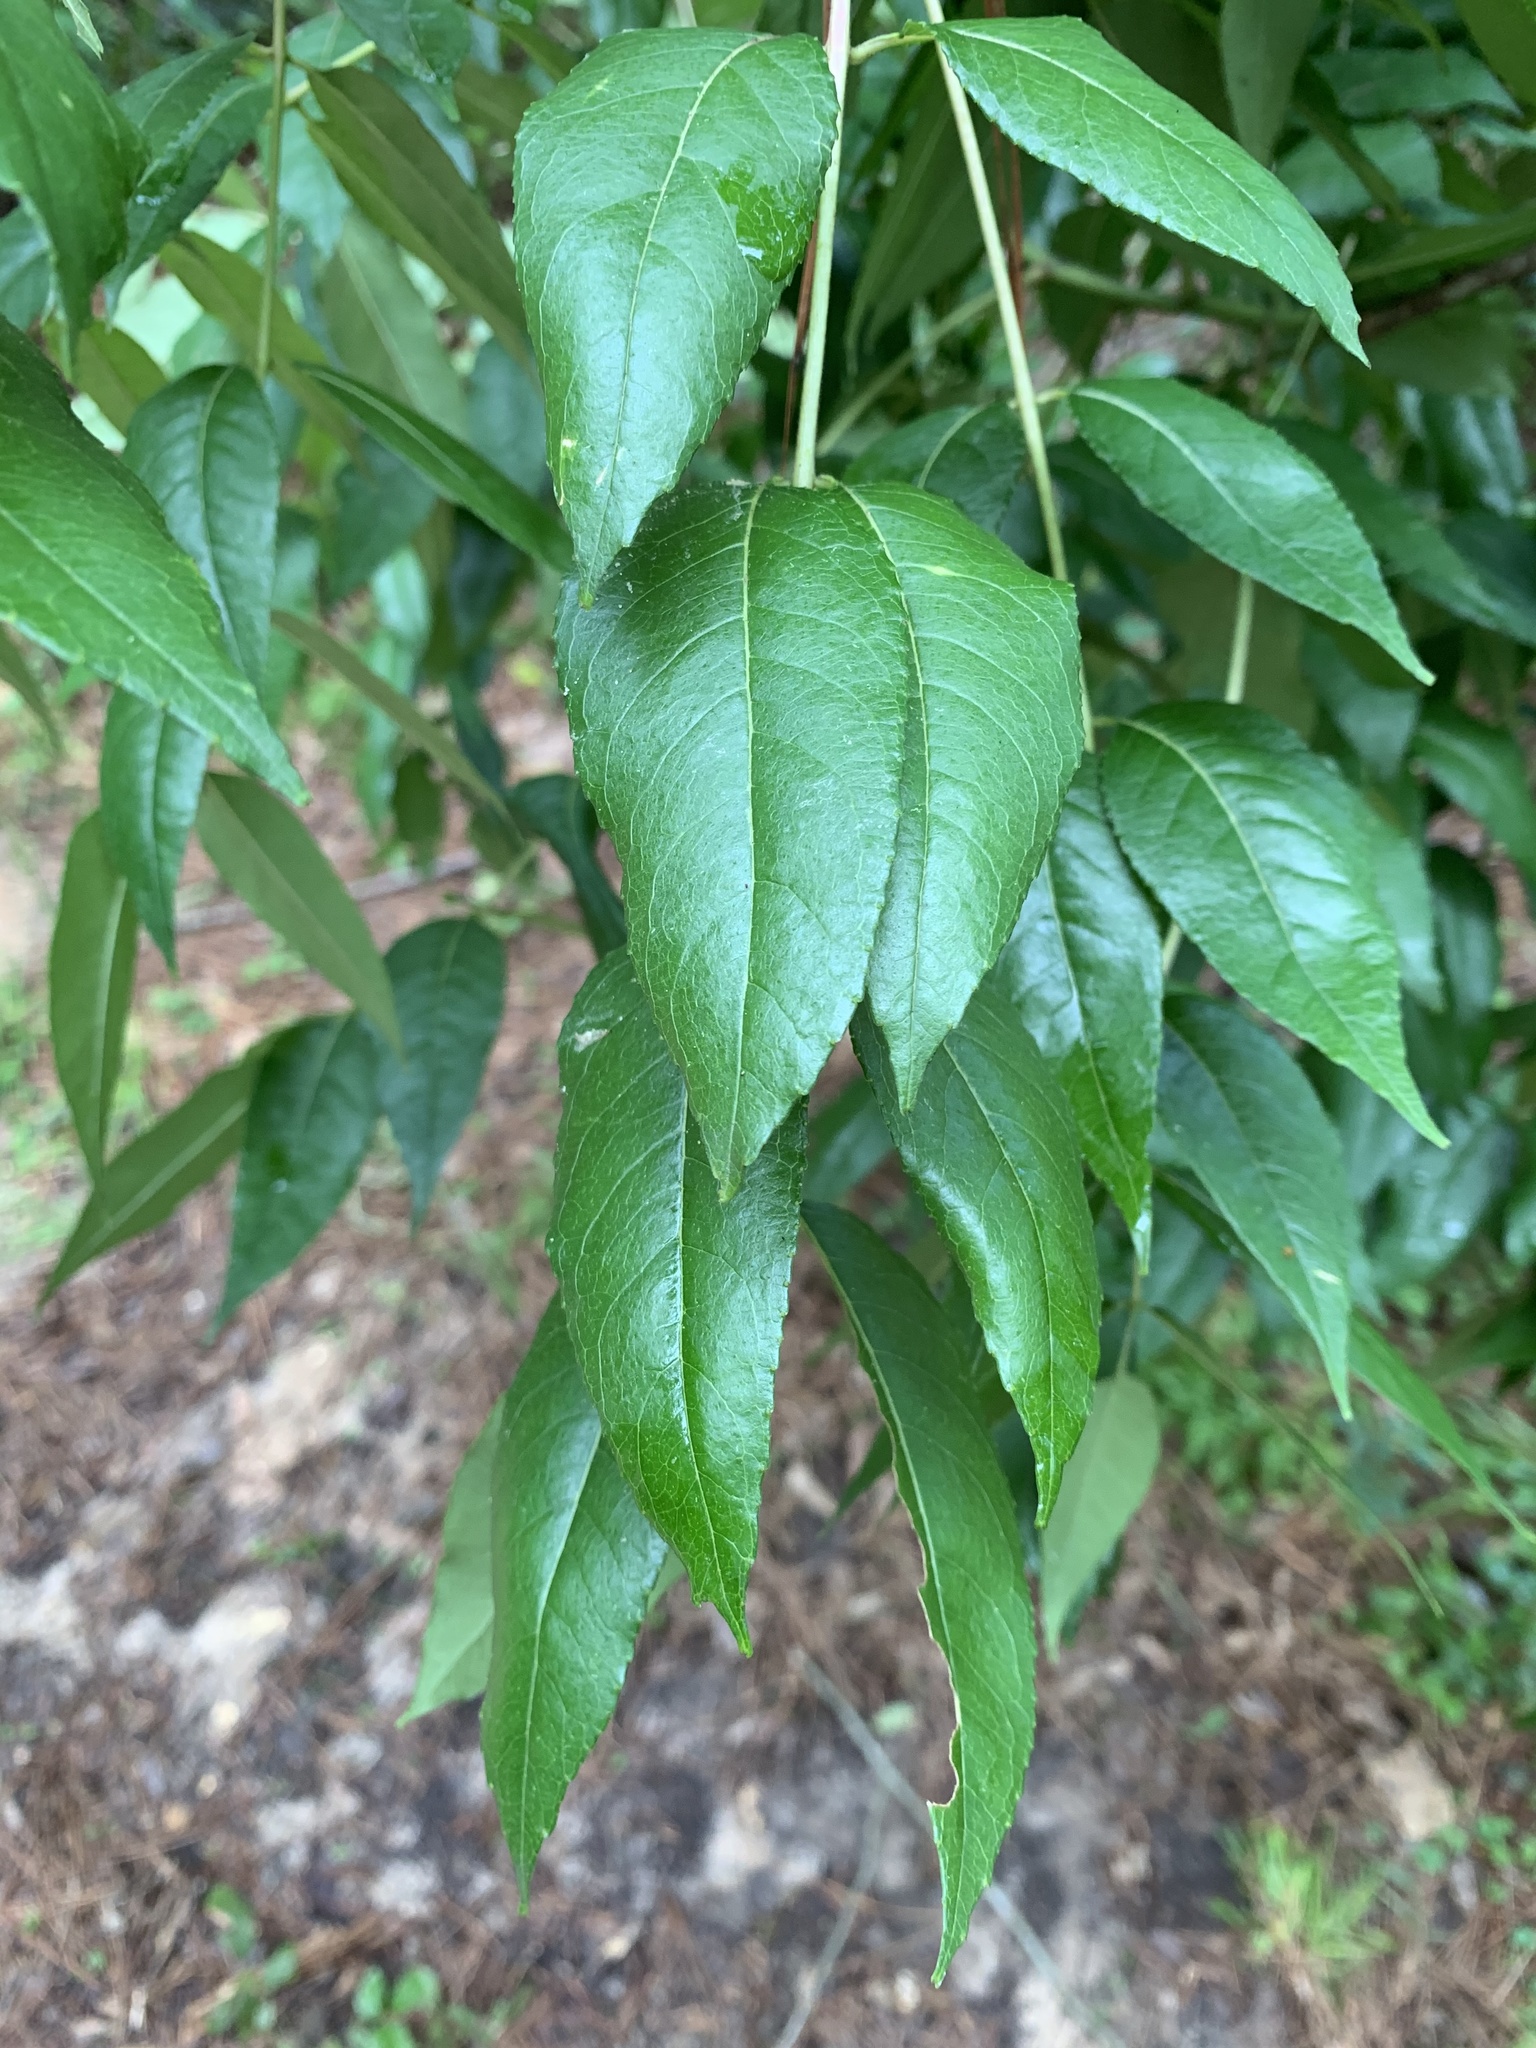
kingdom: Plantae
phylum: Tracheophyta
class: Magnoliopsida
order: Sapindales
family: Rutaceae
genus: Zanthoxylum
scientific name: Zanthoxylum clava-herculis
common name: Hercules'-club
